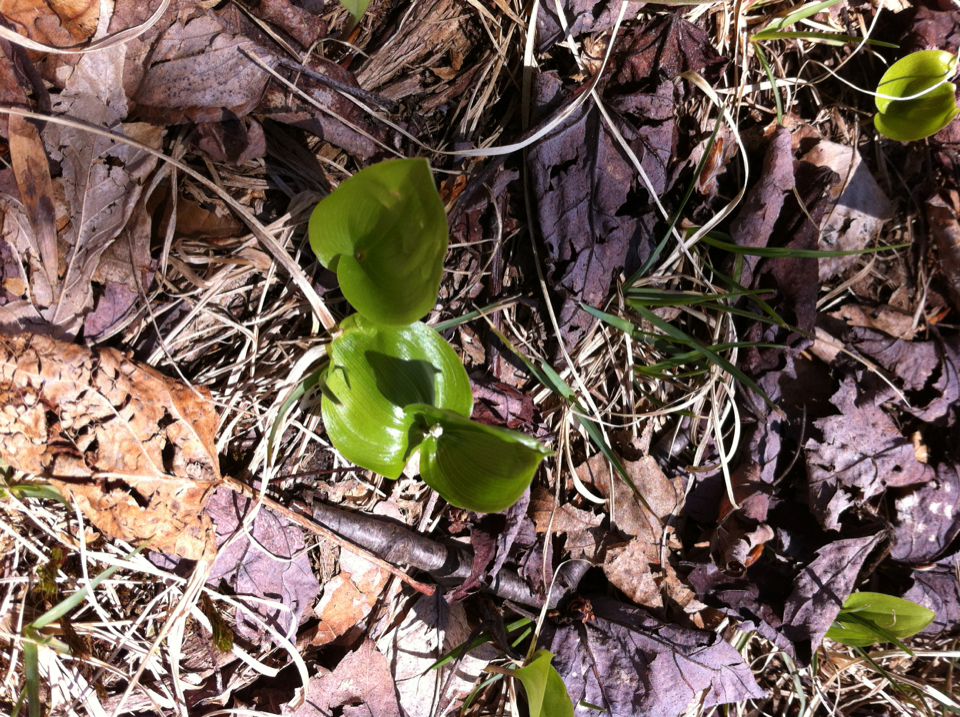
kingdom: Plantae
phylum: Tracheophyta
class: Liliopsida
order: Asparagales
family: Asparagaceae
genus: Maianthemum
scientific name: Maianthemum canadense
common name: False lily-of-the-valley
